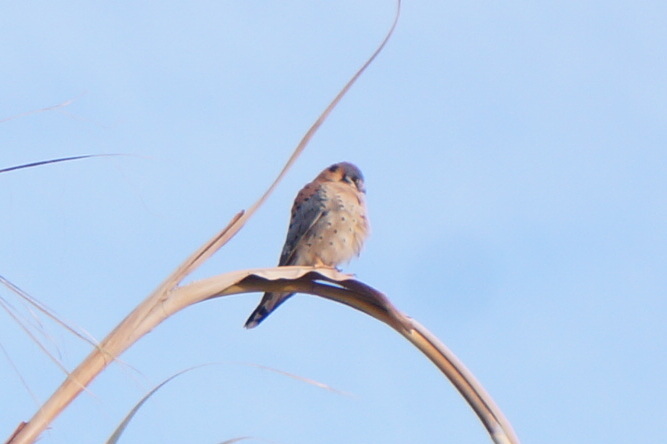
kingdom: Animalia
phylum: Chordata
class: Aves
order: Falconiformes
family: Falconidae
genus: Falco
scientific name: Falco sparverius
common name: American kestrel
